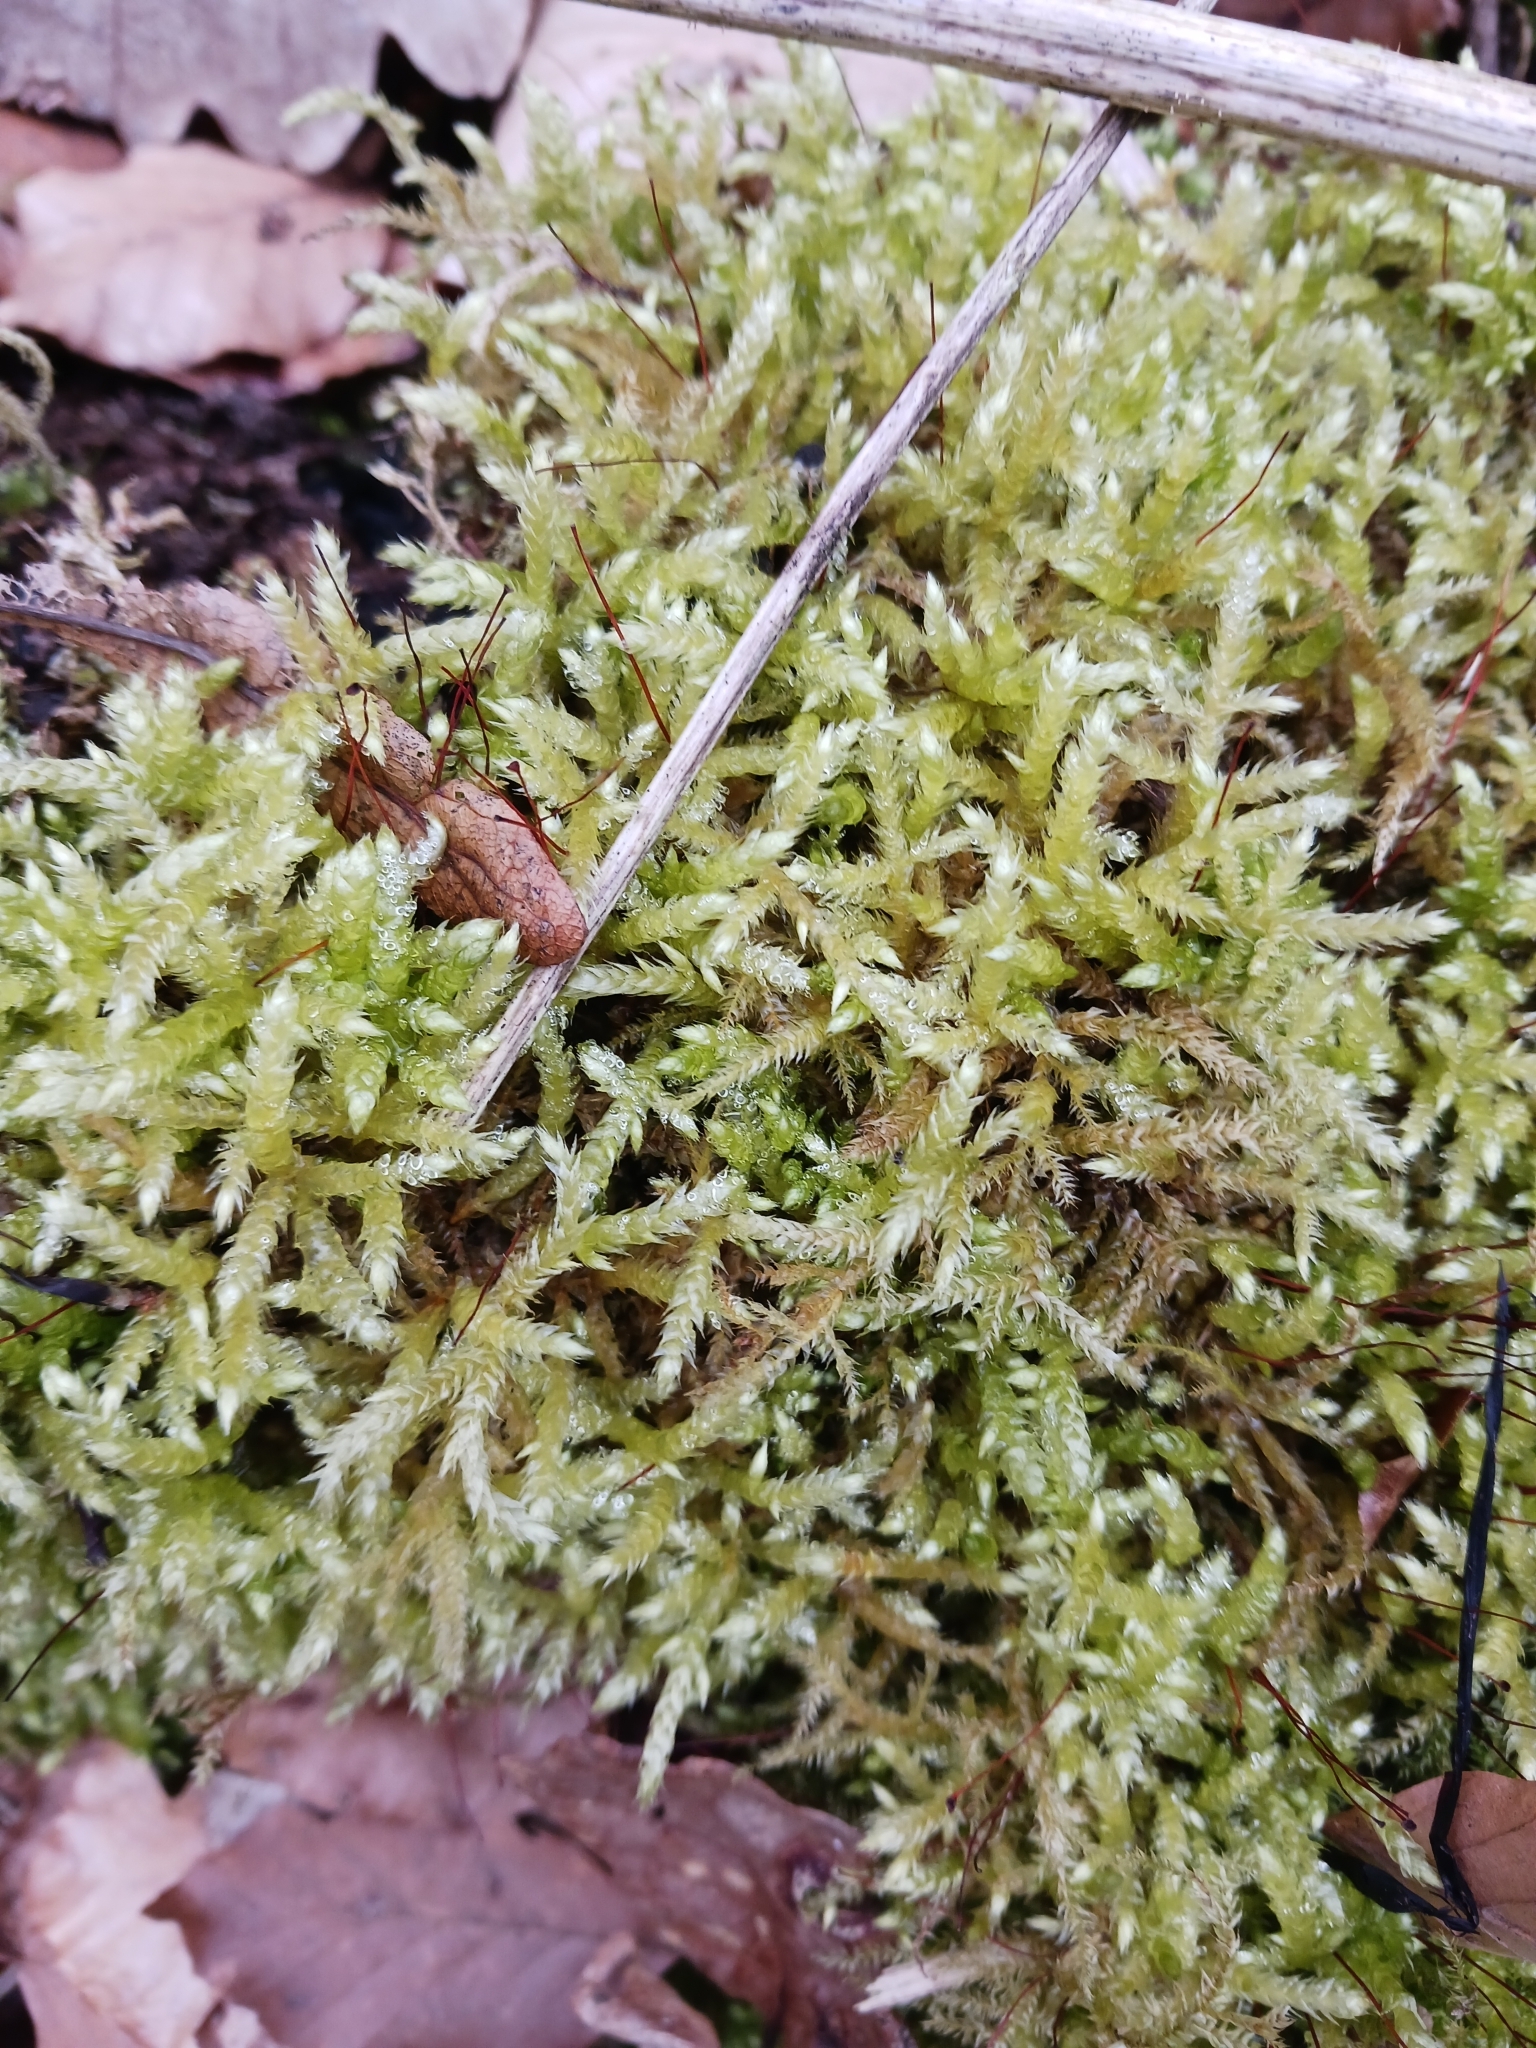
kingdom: Plantae
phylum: Bryophyta
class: Bryopsida
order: Hypnales
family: Brachytheciaceae
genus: Brachythecium
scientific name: Brachythecium rutabulum
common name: Rough-stalked feather-moss
